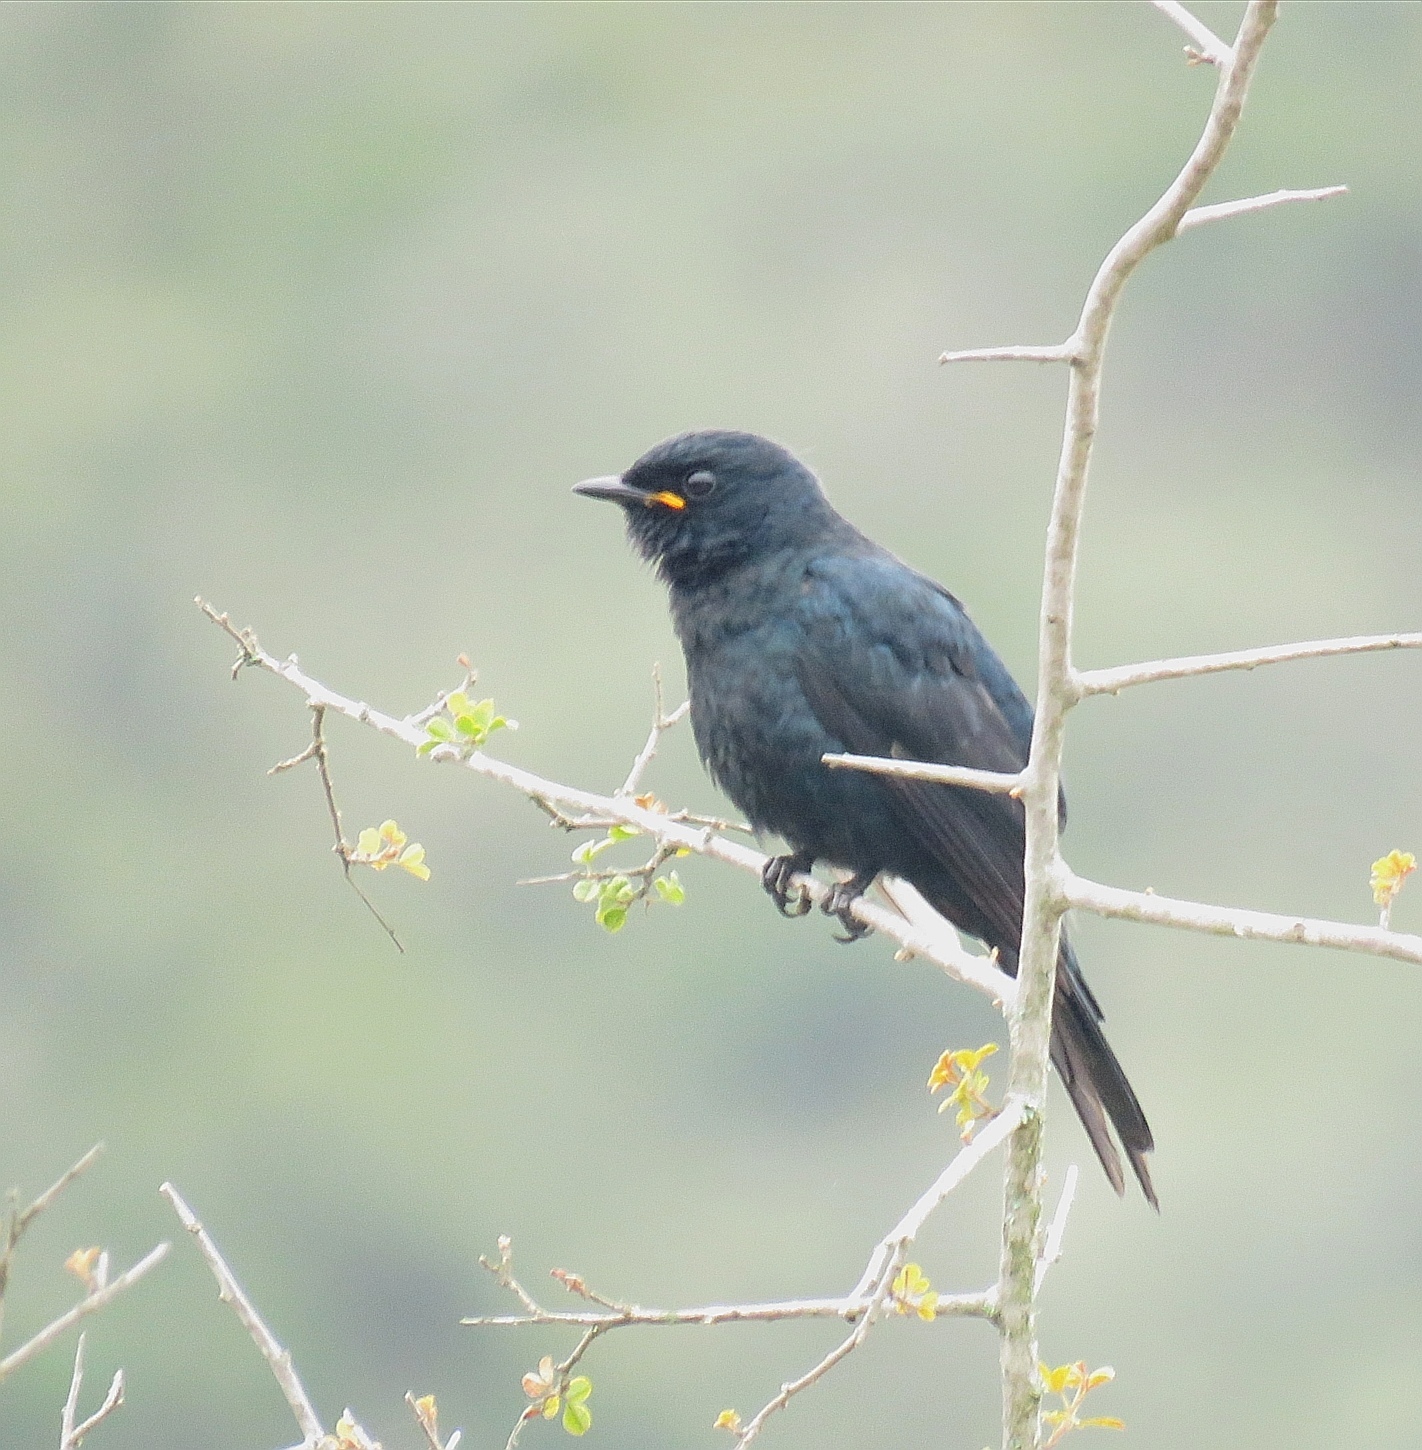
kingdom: Animalia
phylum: Chordata
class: Aves
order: Passeriformes
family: Campephagidae
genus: Campephaga
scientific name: Campephaga flava
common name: Black cuckooshrike
